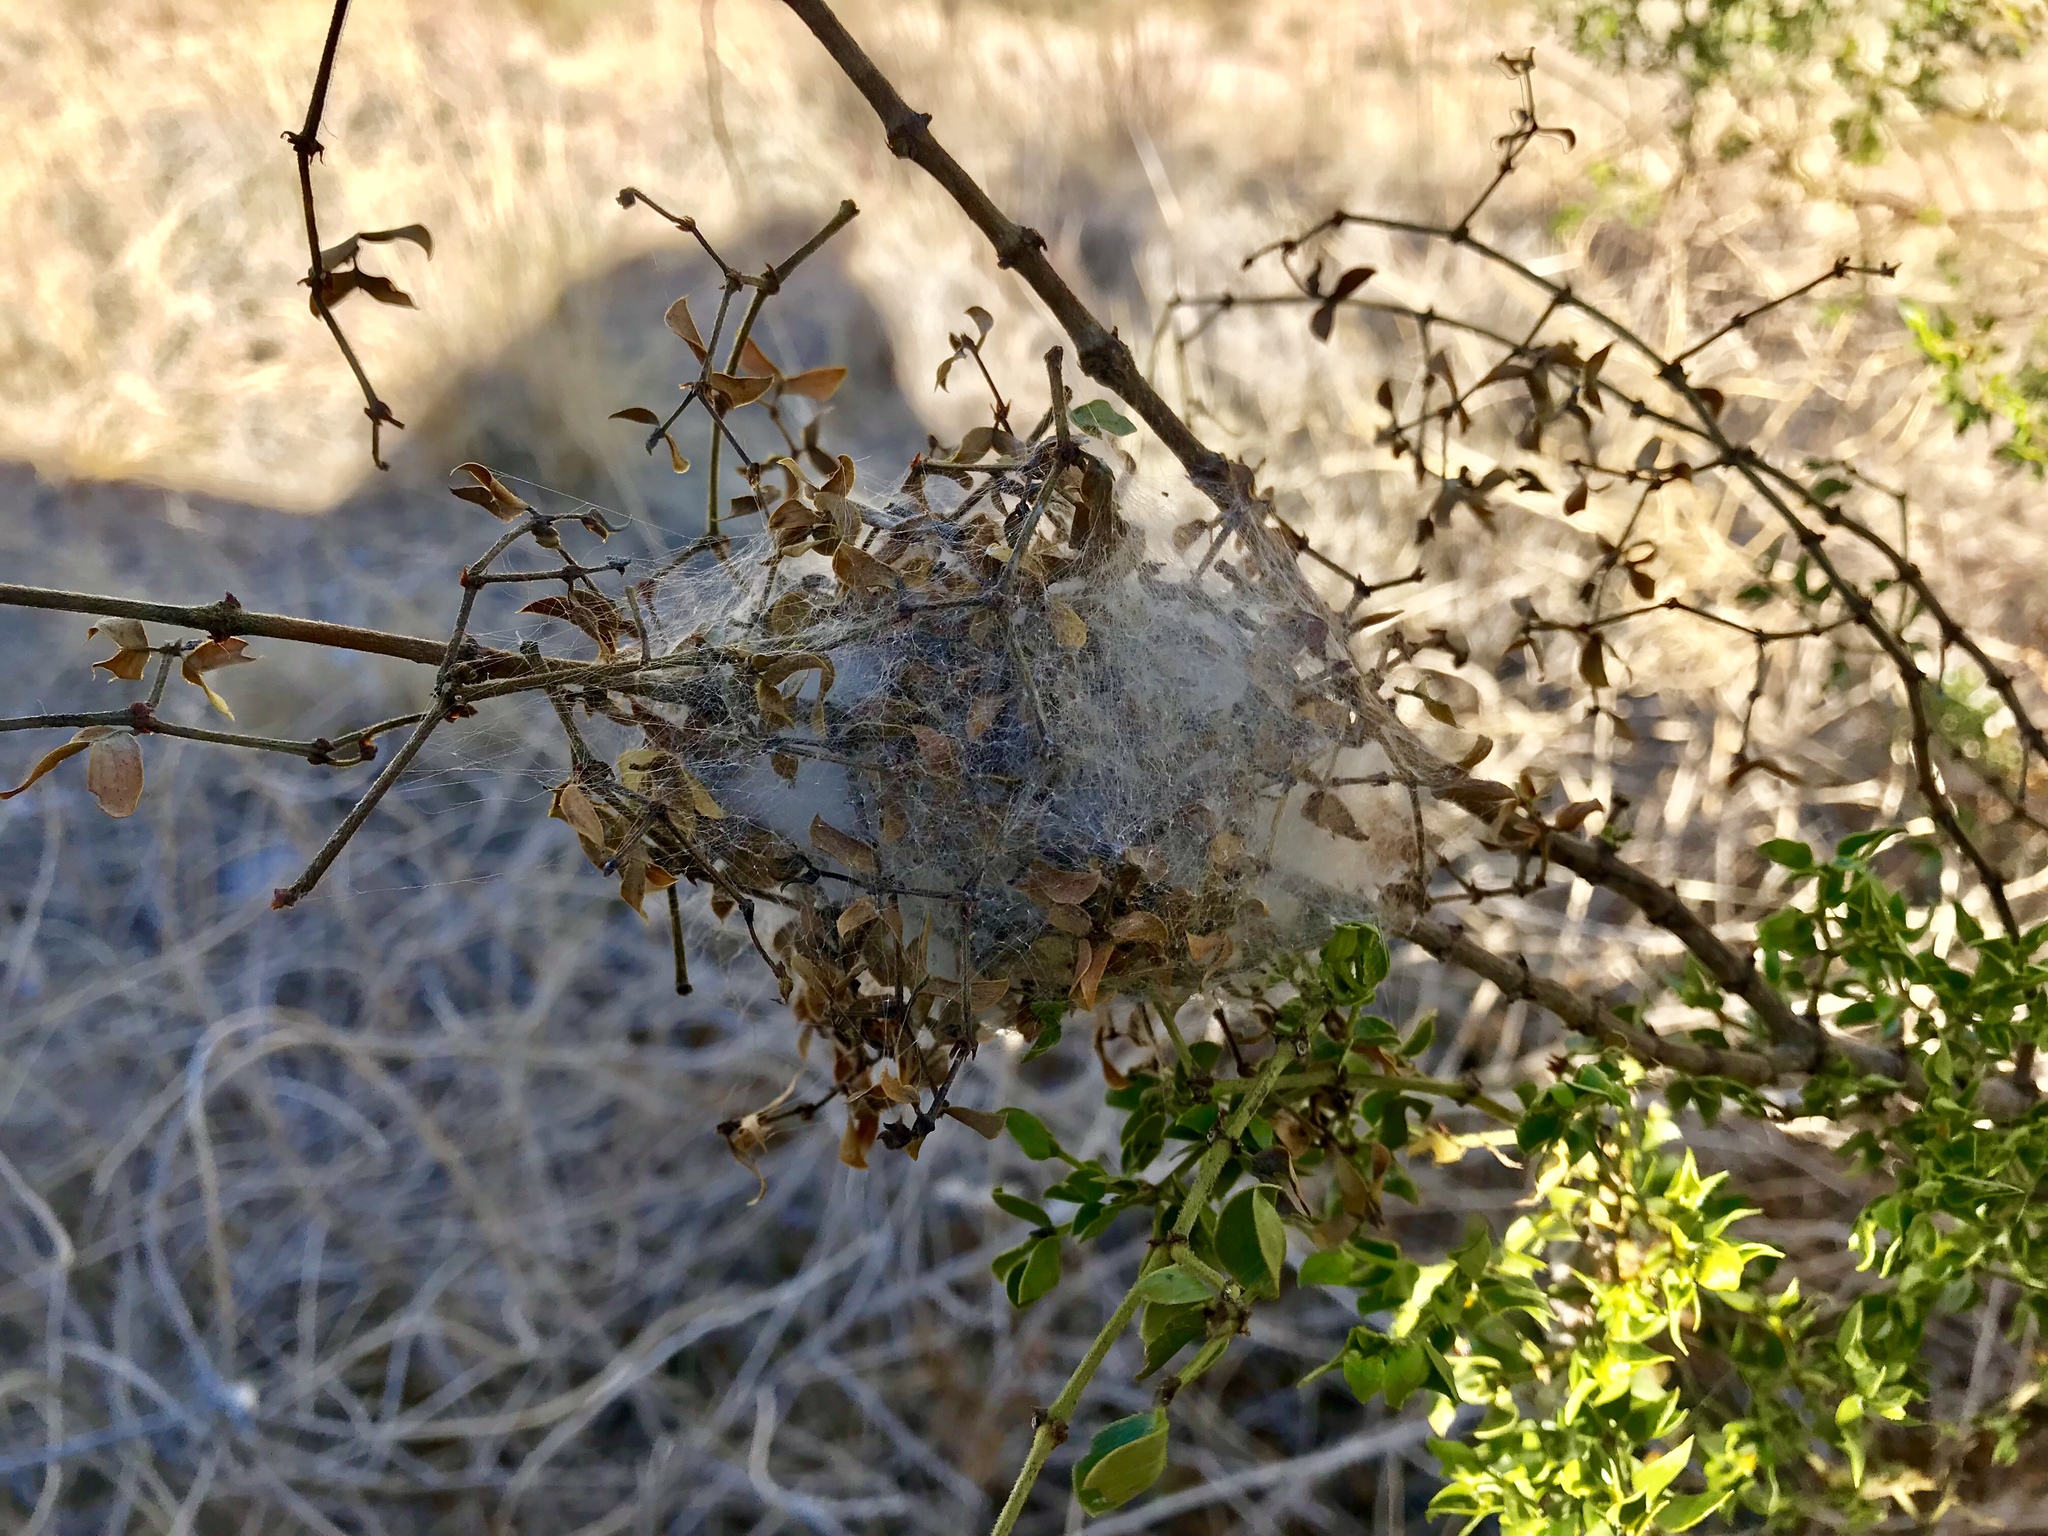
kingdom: Animalia
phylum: Arthropoda
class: Arachnida
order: Araneae
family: Oxyopidae
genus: Peucetia
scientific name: Peucetia viridans
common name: Lynx spiders
